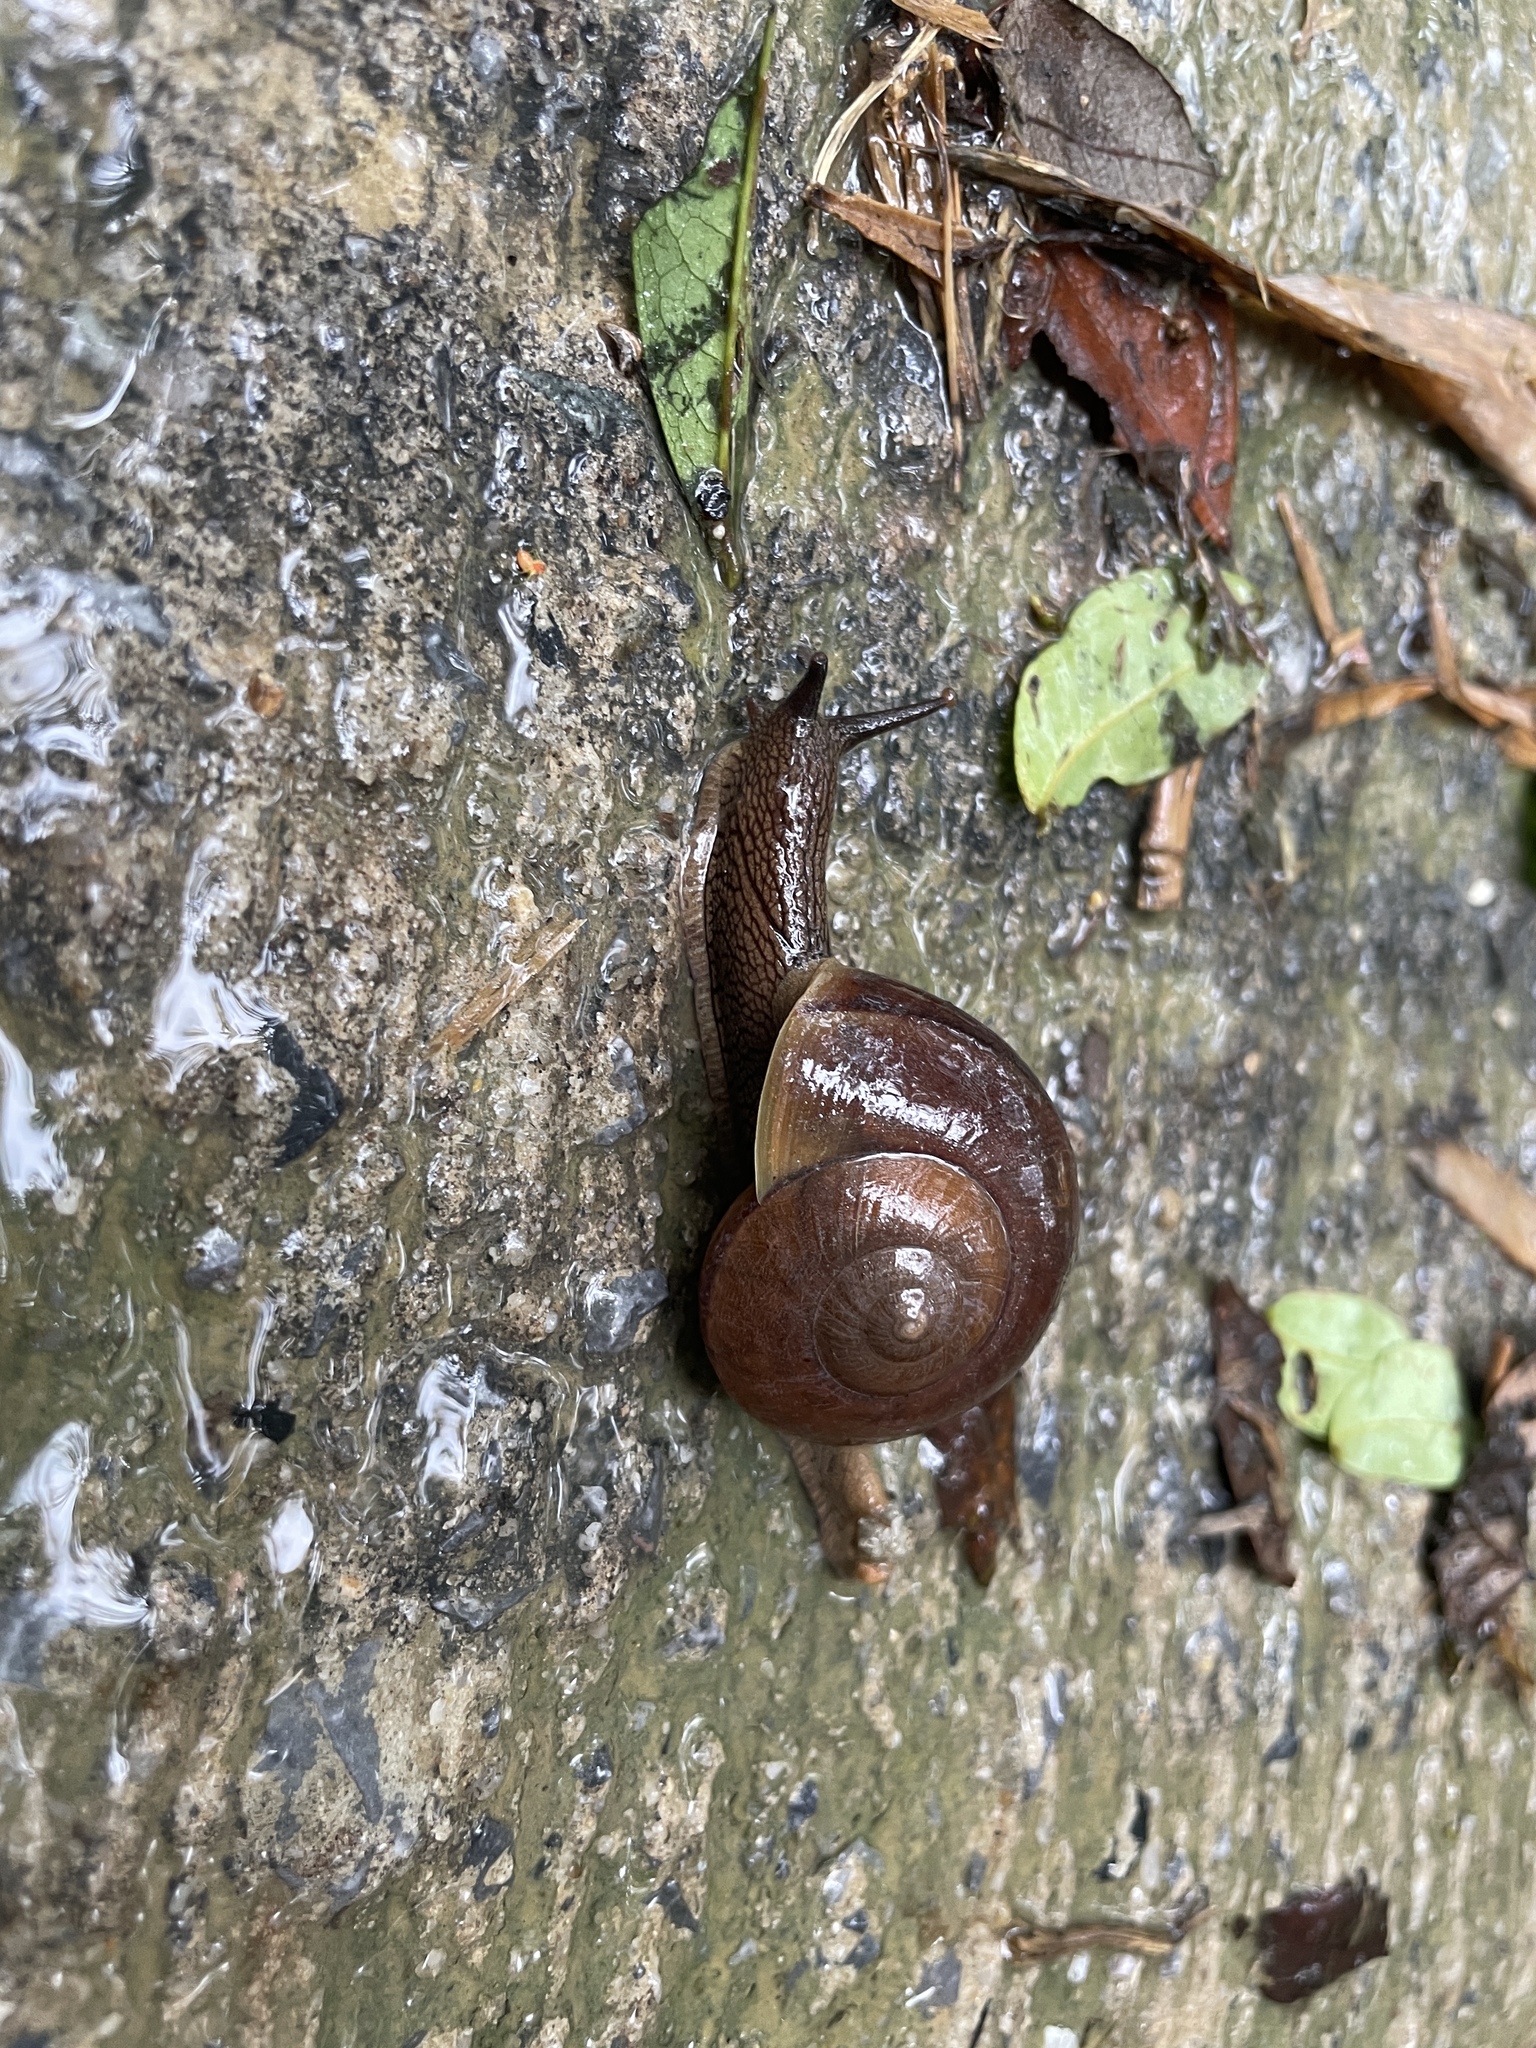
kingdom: Animalia
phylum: Mollusca
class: Gastropoda
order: Stylommatophora
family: Ariophantidae
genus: Hemiplecta
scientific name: Hemiplecta salangana
